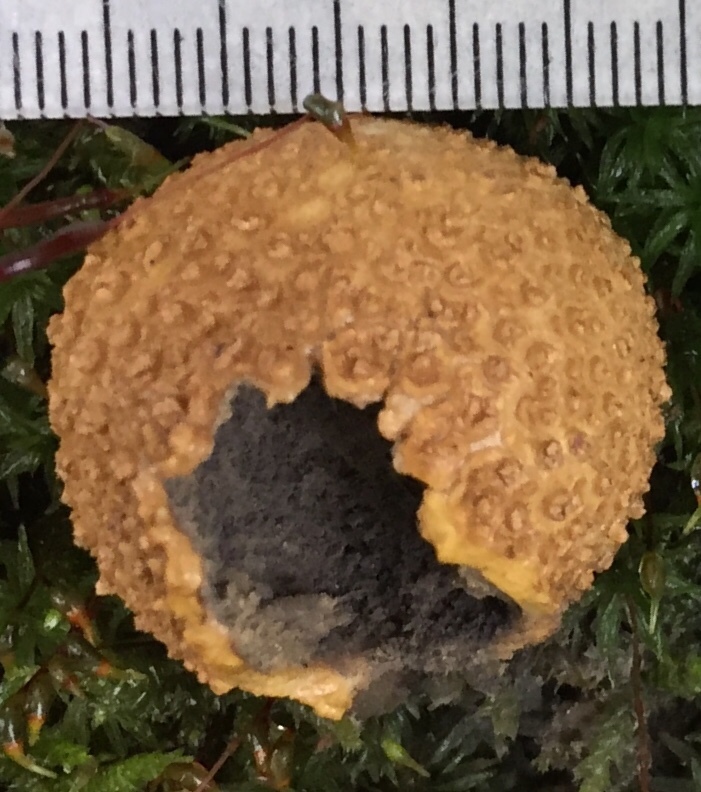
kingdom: Fungi
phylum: Basidiomycota
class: Agaricomycetes
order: Boletales
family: Sclerodermataceae
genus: Scleroderma
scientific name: Scleroderma citrinum
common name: Common earthball
